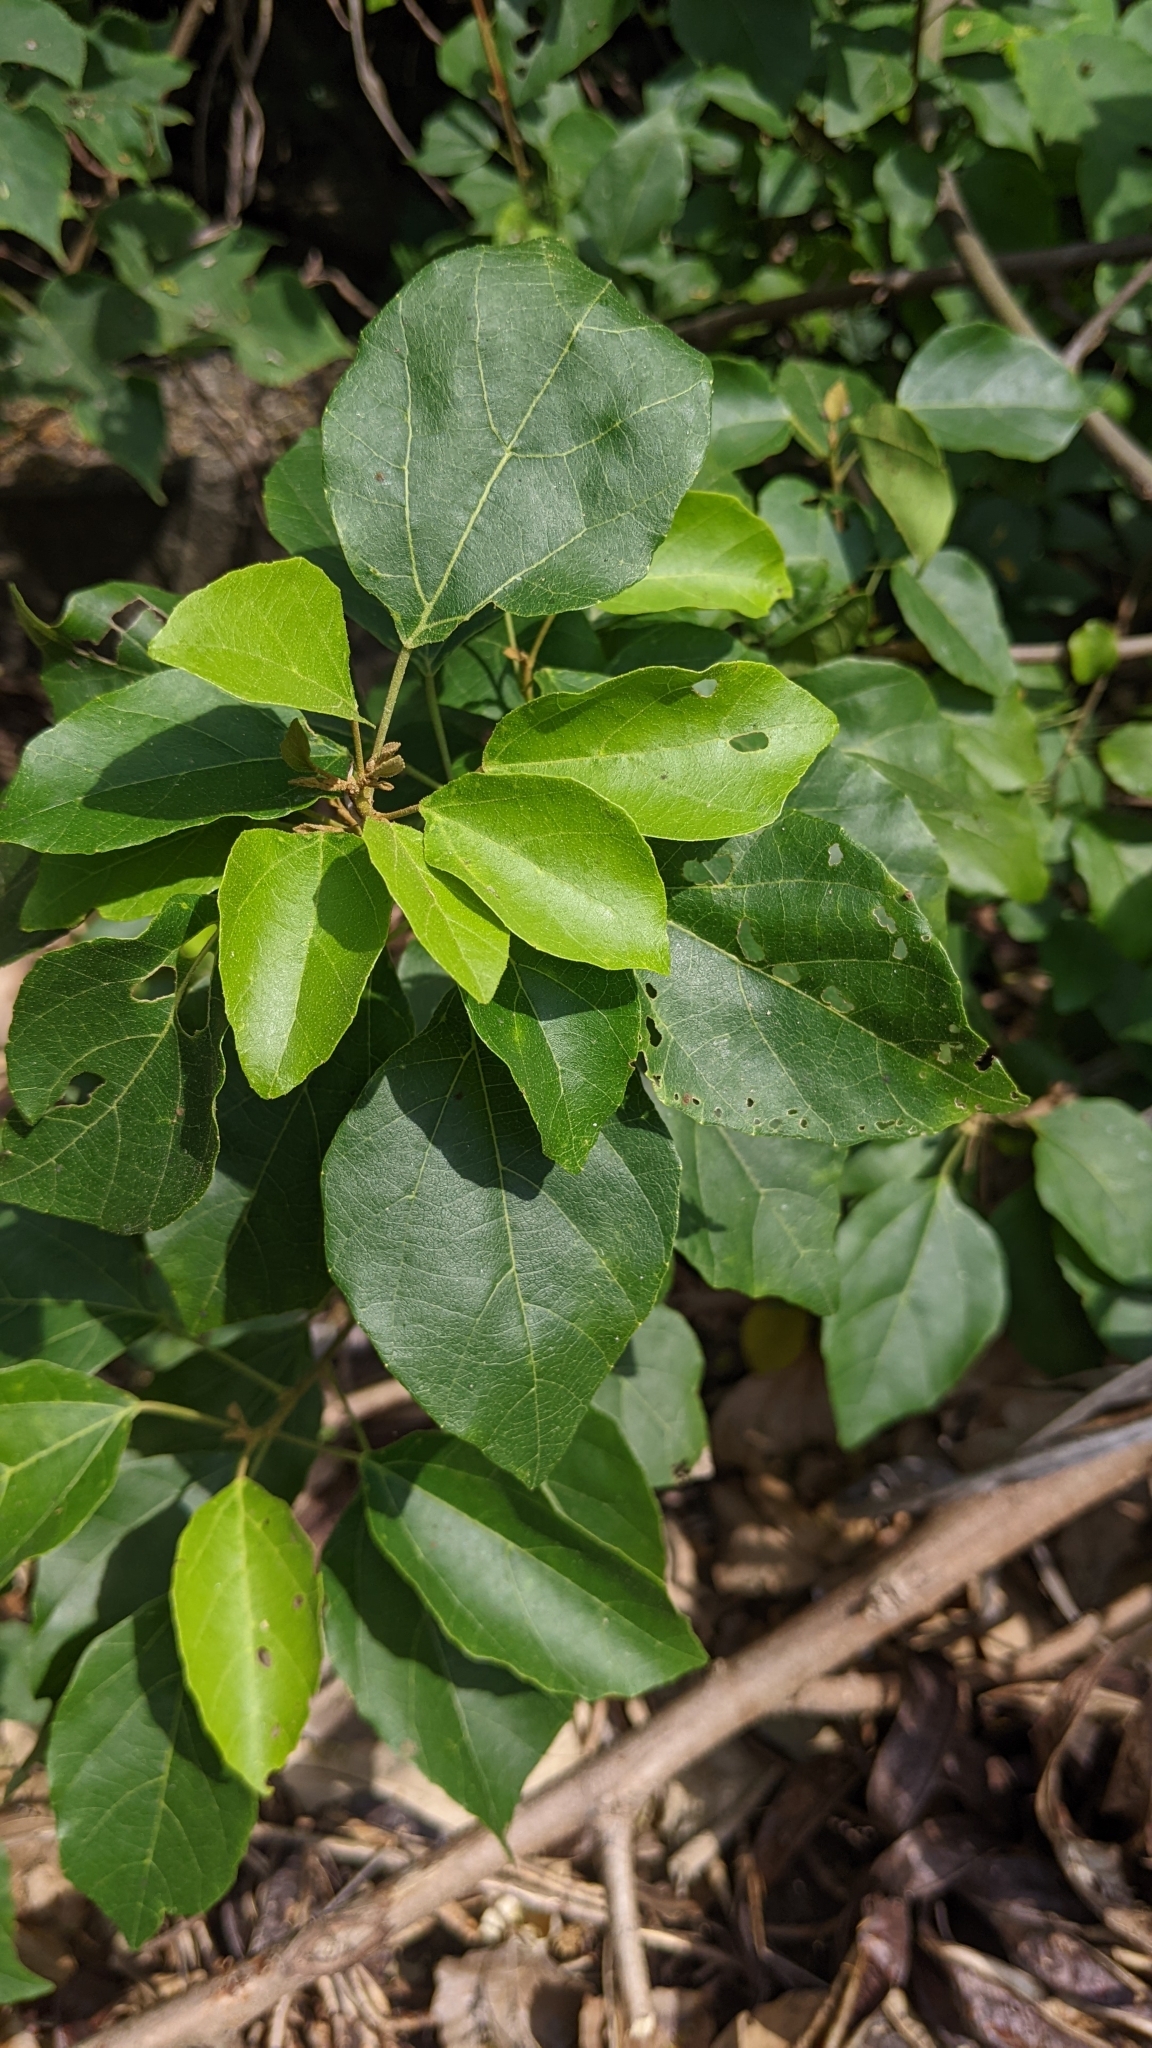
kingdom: Plantae
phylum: Tracheophyta
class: Magnoliopsida
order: Malpighiales
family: Euphorbiaceae
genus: Mallotus
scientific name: Mallotus repandus
